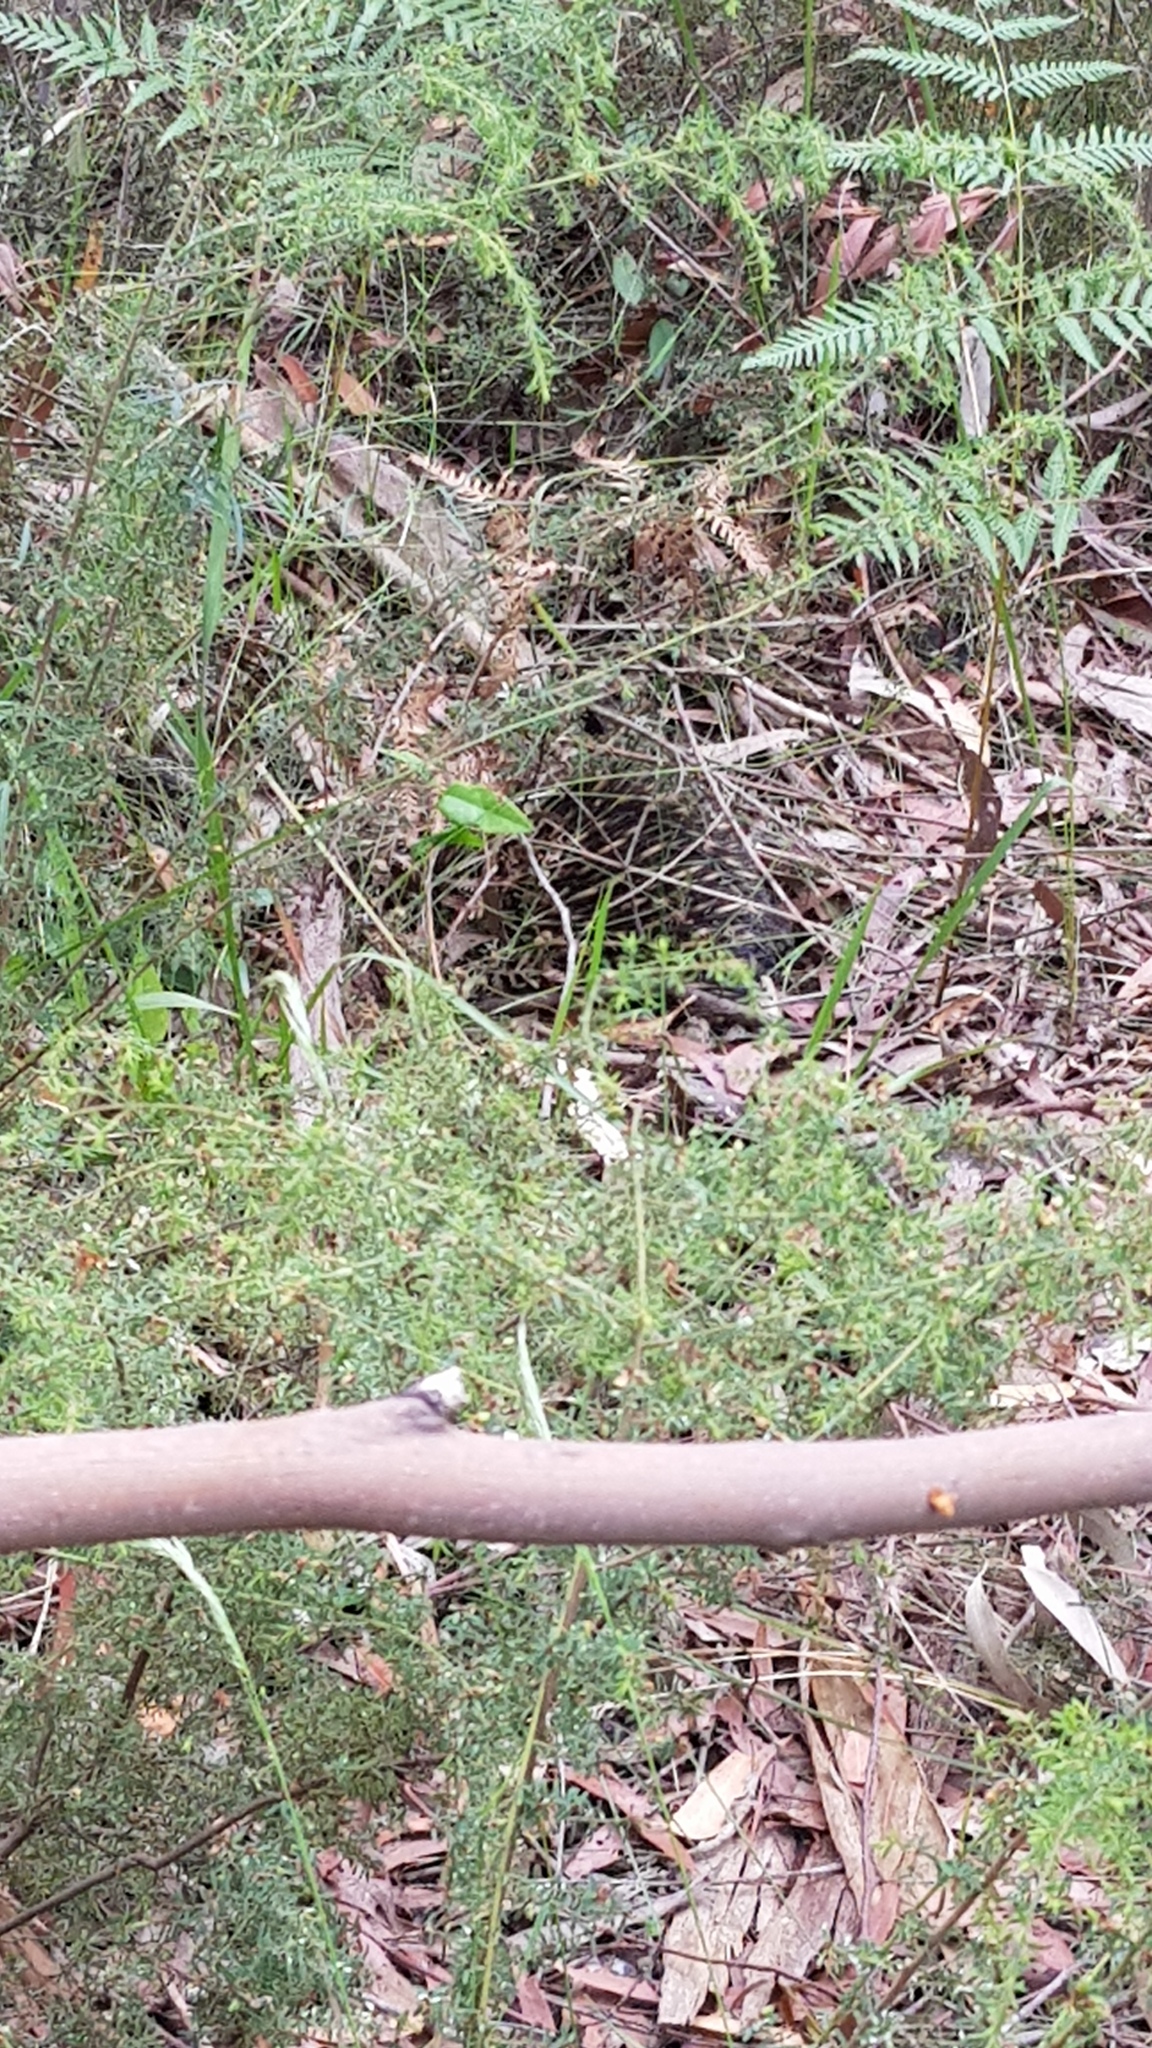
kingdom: Animalia
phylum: Chordata
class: Mammalia
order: Monotremata
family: Tachyglossidae
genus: Tachyglossus
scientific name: Tachyglossus aculeatus
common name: Short-beaked echidna
